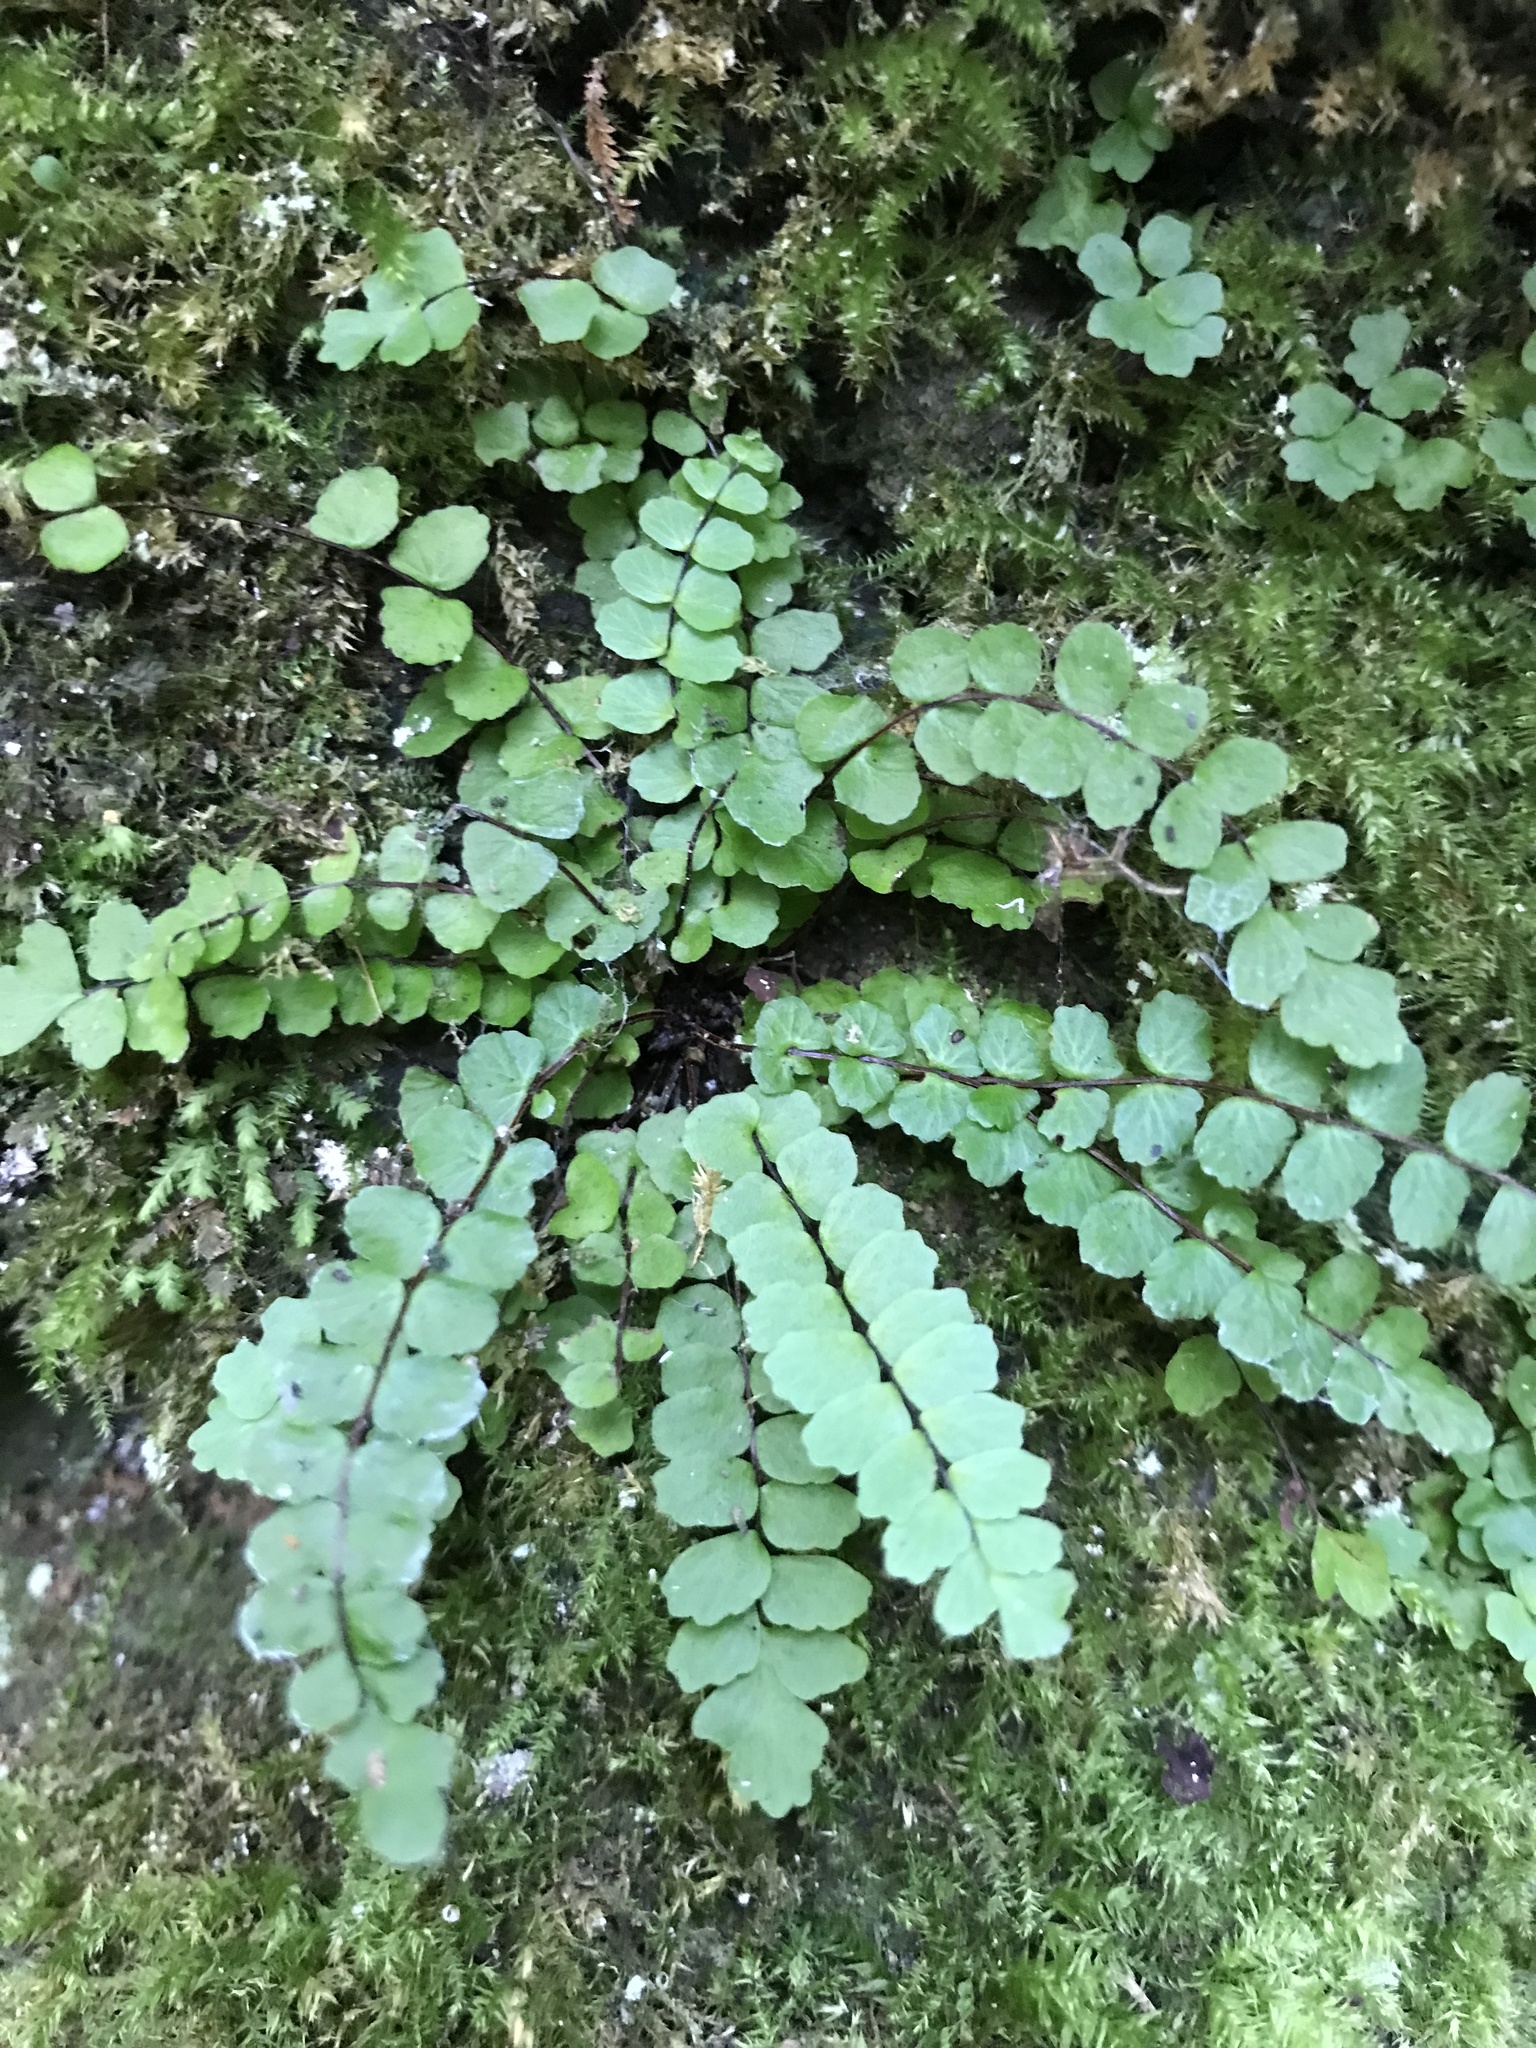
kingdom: Plantae
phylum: Tracheophyta
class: Polypodiopsida
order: Polypodiales
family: Aspleniaceae
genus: Asplenium
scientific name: Asplenium trichomanes
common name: Maidenhair spleenwort
